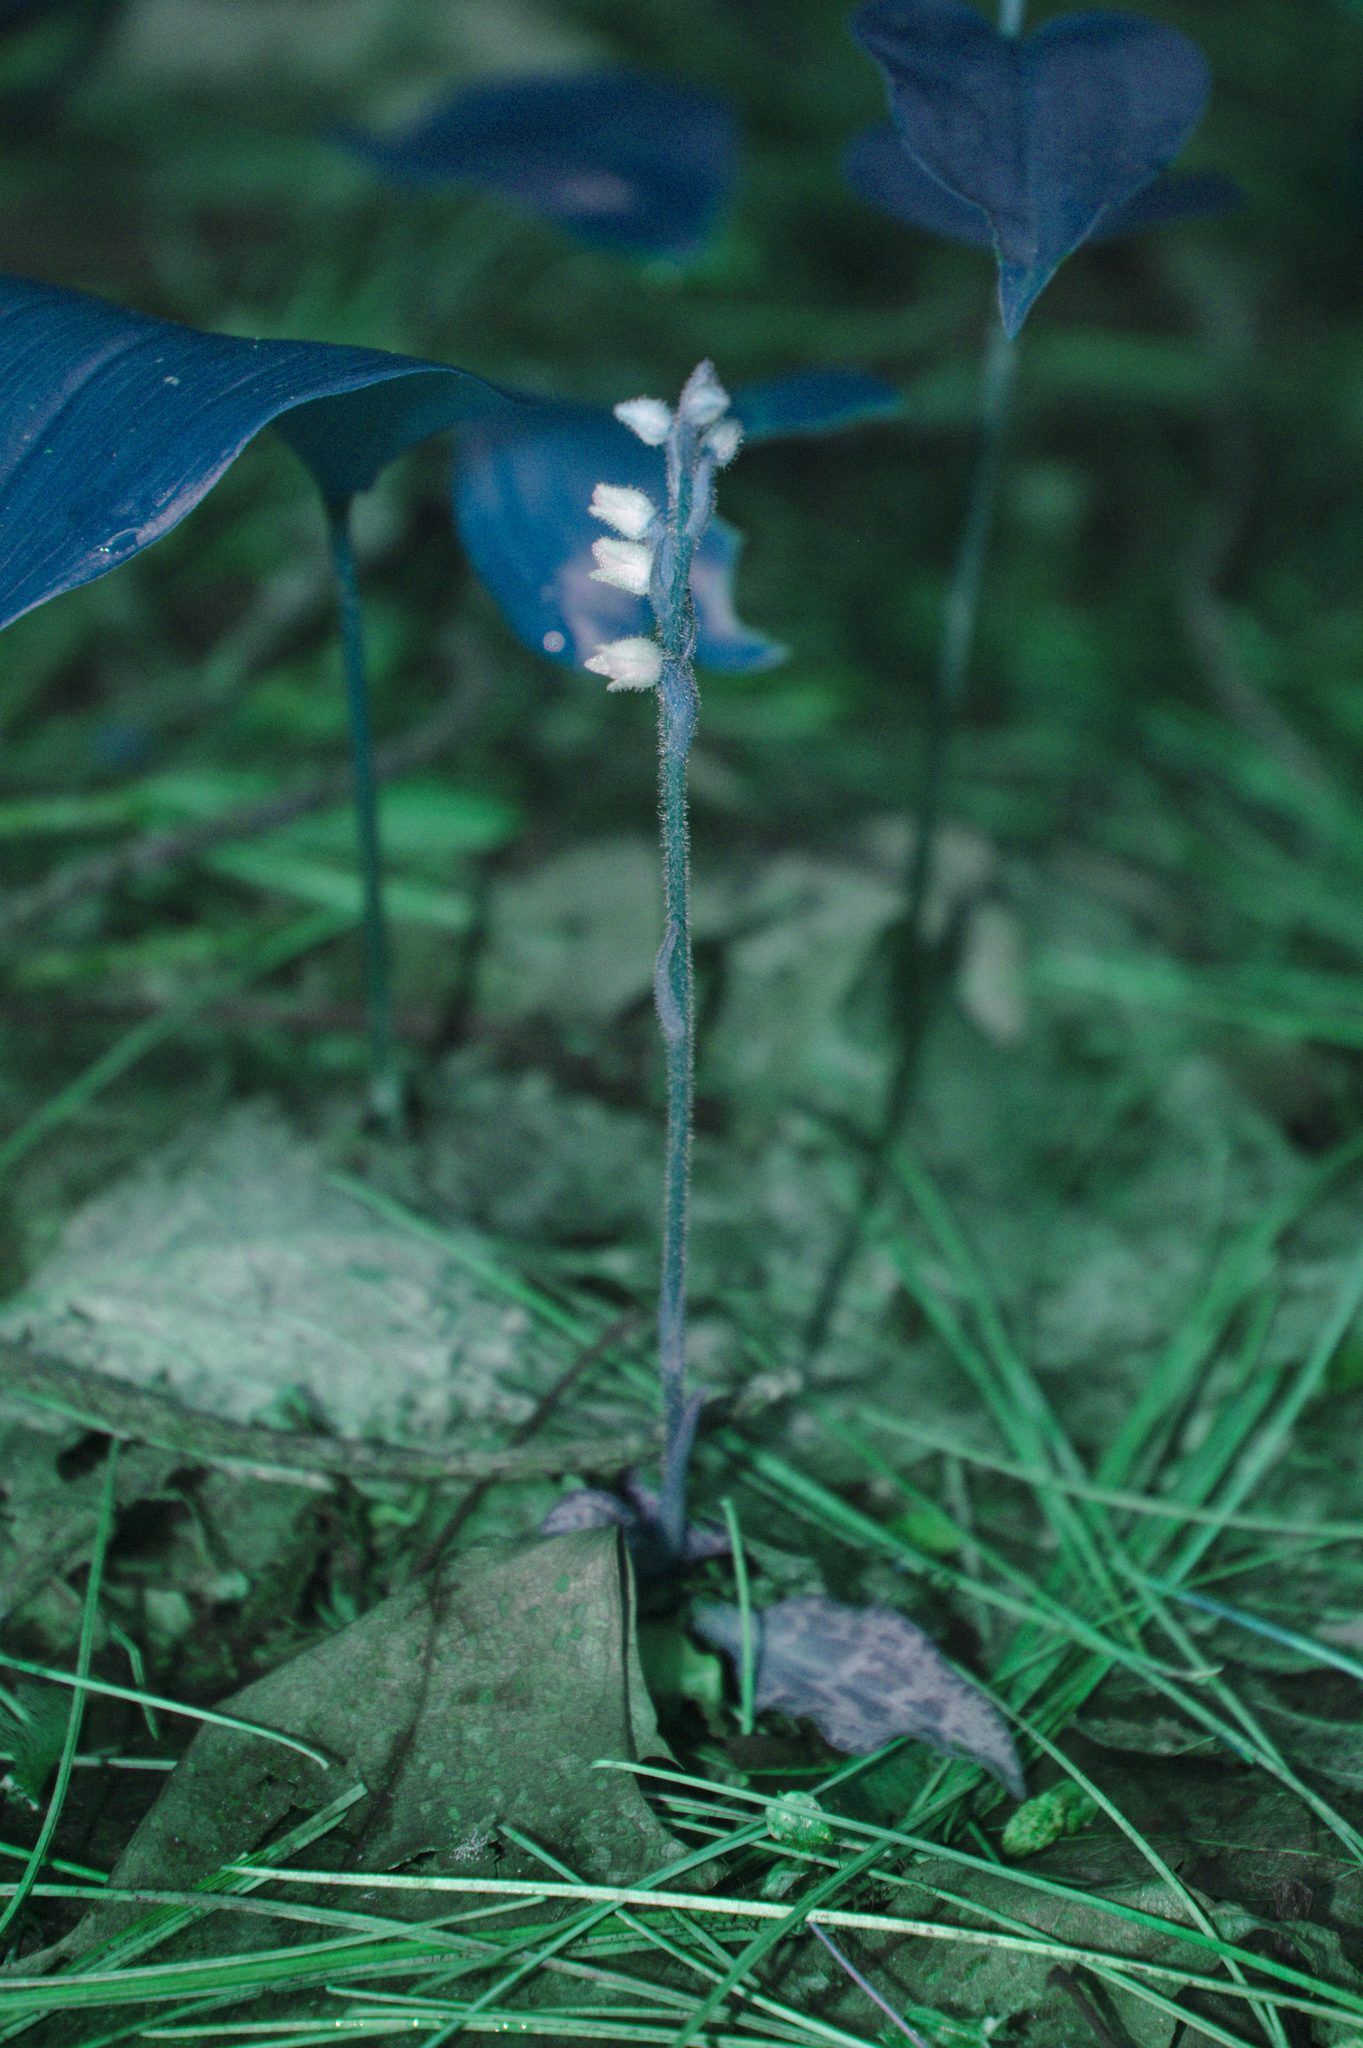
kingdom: Plantae
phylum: Tracheophyta
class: Liliopsida
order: Asparagales
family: Orchidaceae
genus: Goodyera
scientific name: Goodyera tesselata
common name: Checkered rattlesnake-plantain
